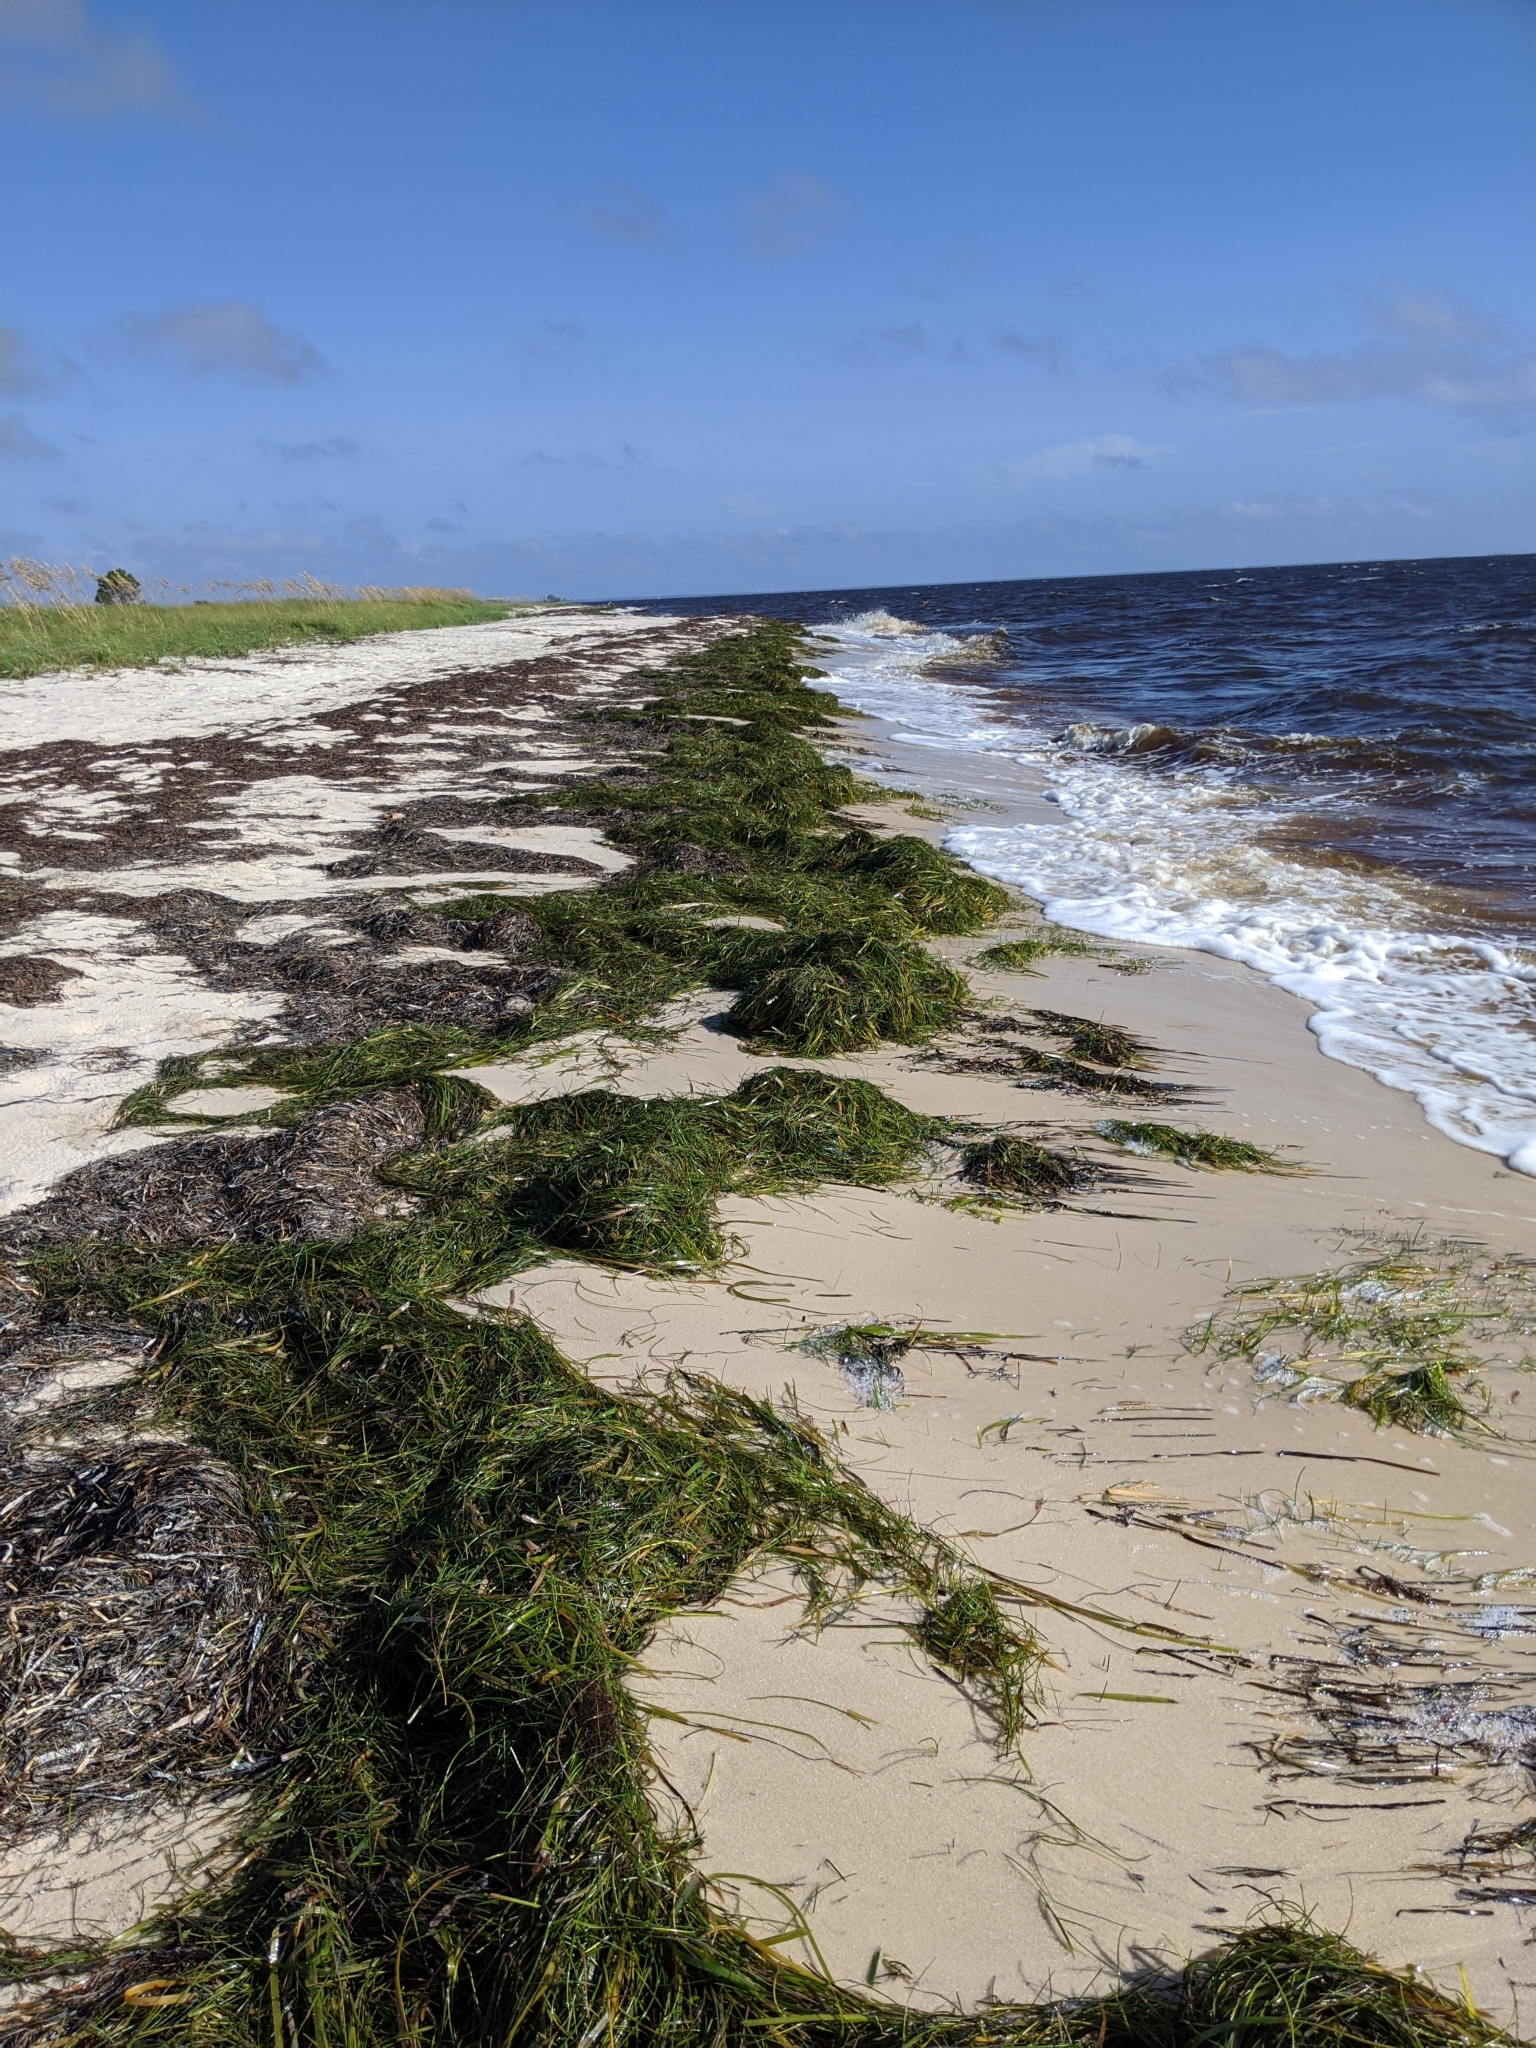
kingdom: Plantae
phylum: Tracheophyta
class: Liliopsida
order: Alismatales
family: Cymodoceaceae
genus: Syringodium
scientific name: Syringodium filiforme
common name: Manatee grass
